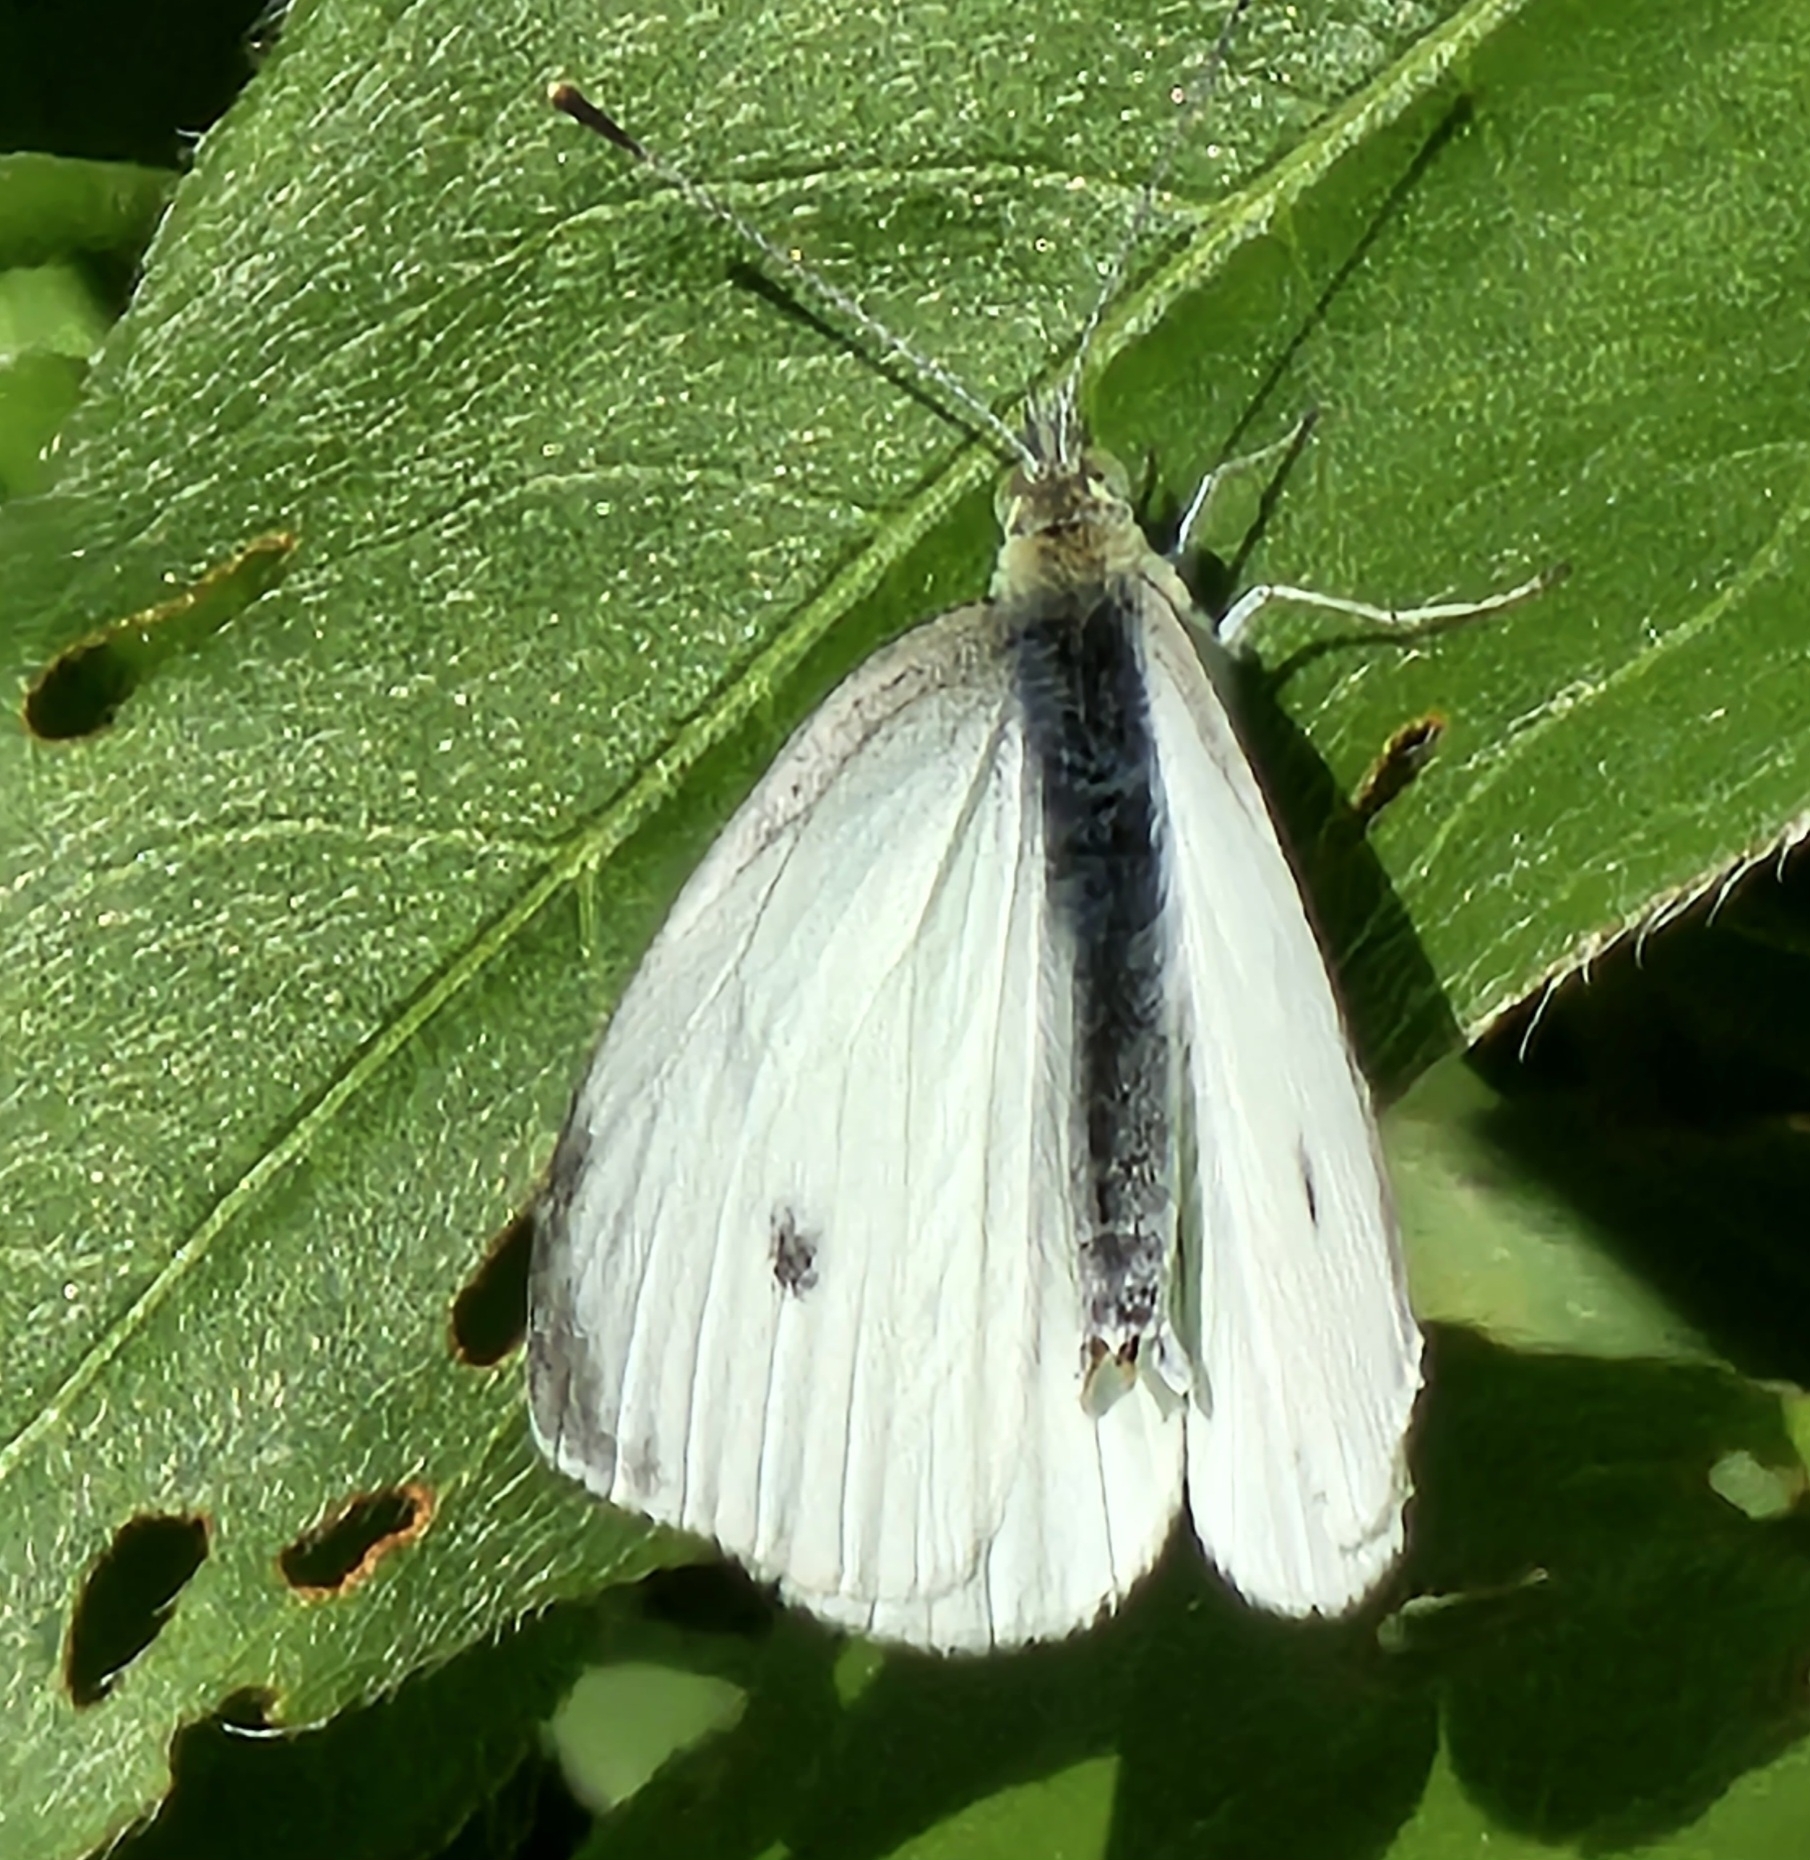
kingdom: Animalia
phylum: Arthropoda
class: Insecta
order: Lepidoptera
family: Pieridae
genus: Pieris
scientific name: Pieris rapae
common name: Small white
